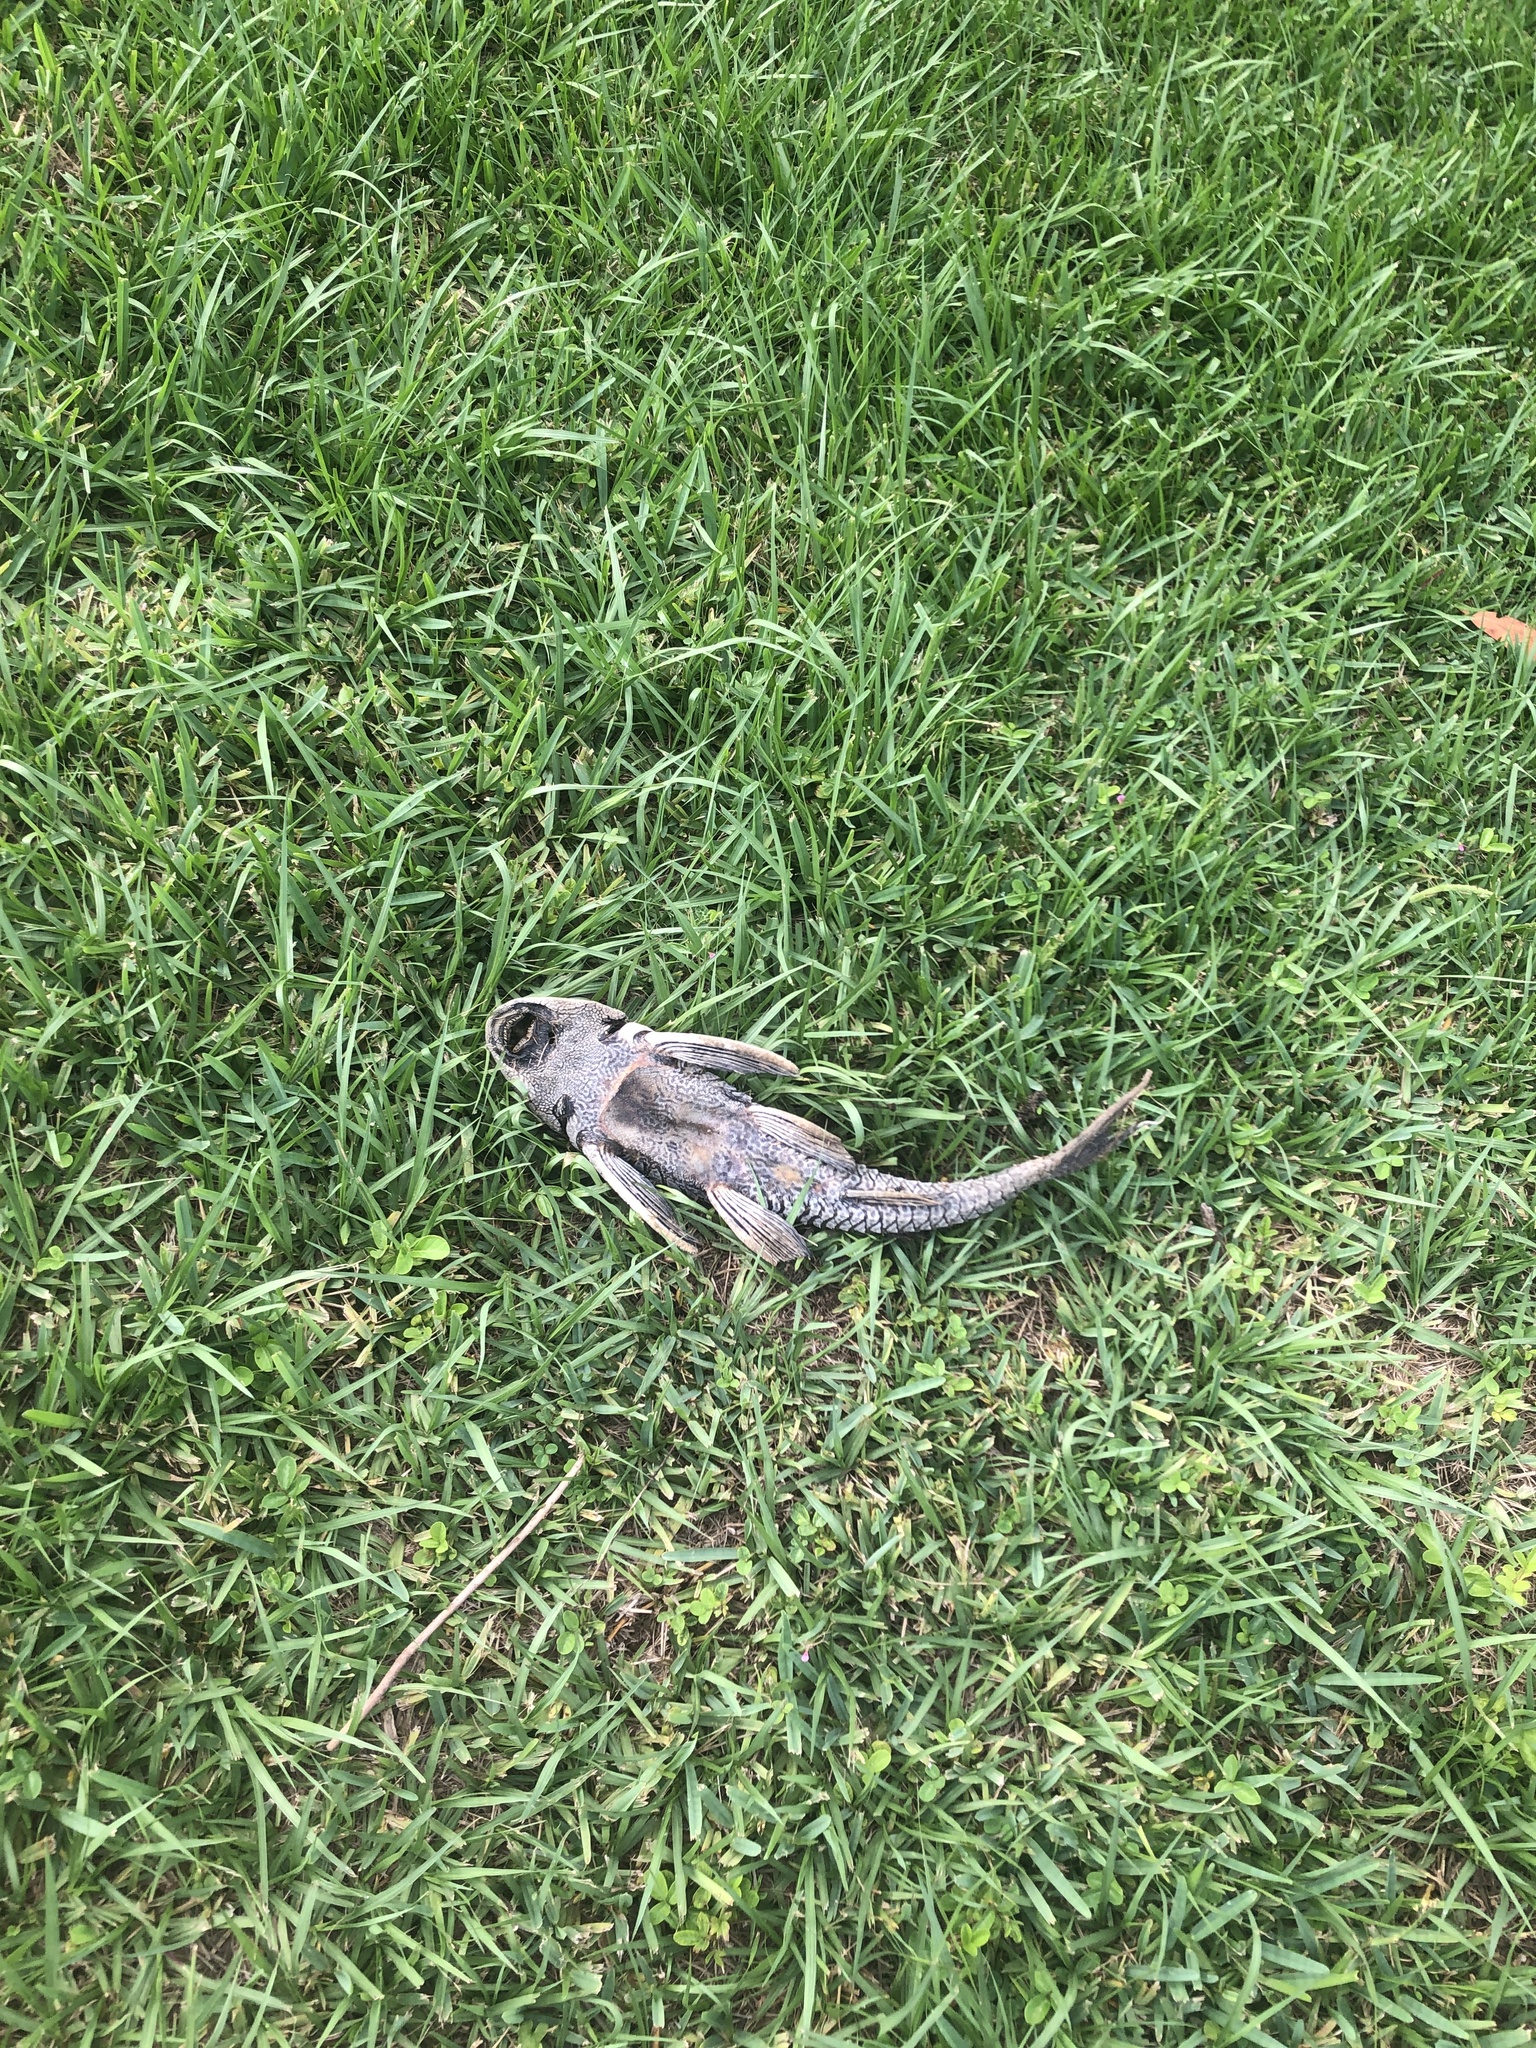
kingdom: Animalia
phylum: Chordata
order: Siluriformes
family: Loricariidae
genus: Pterygoplichthys
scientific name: Pterygoplichthys
